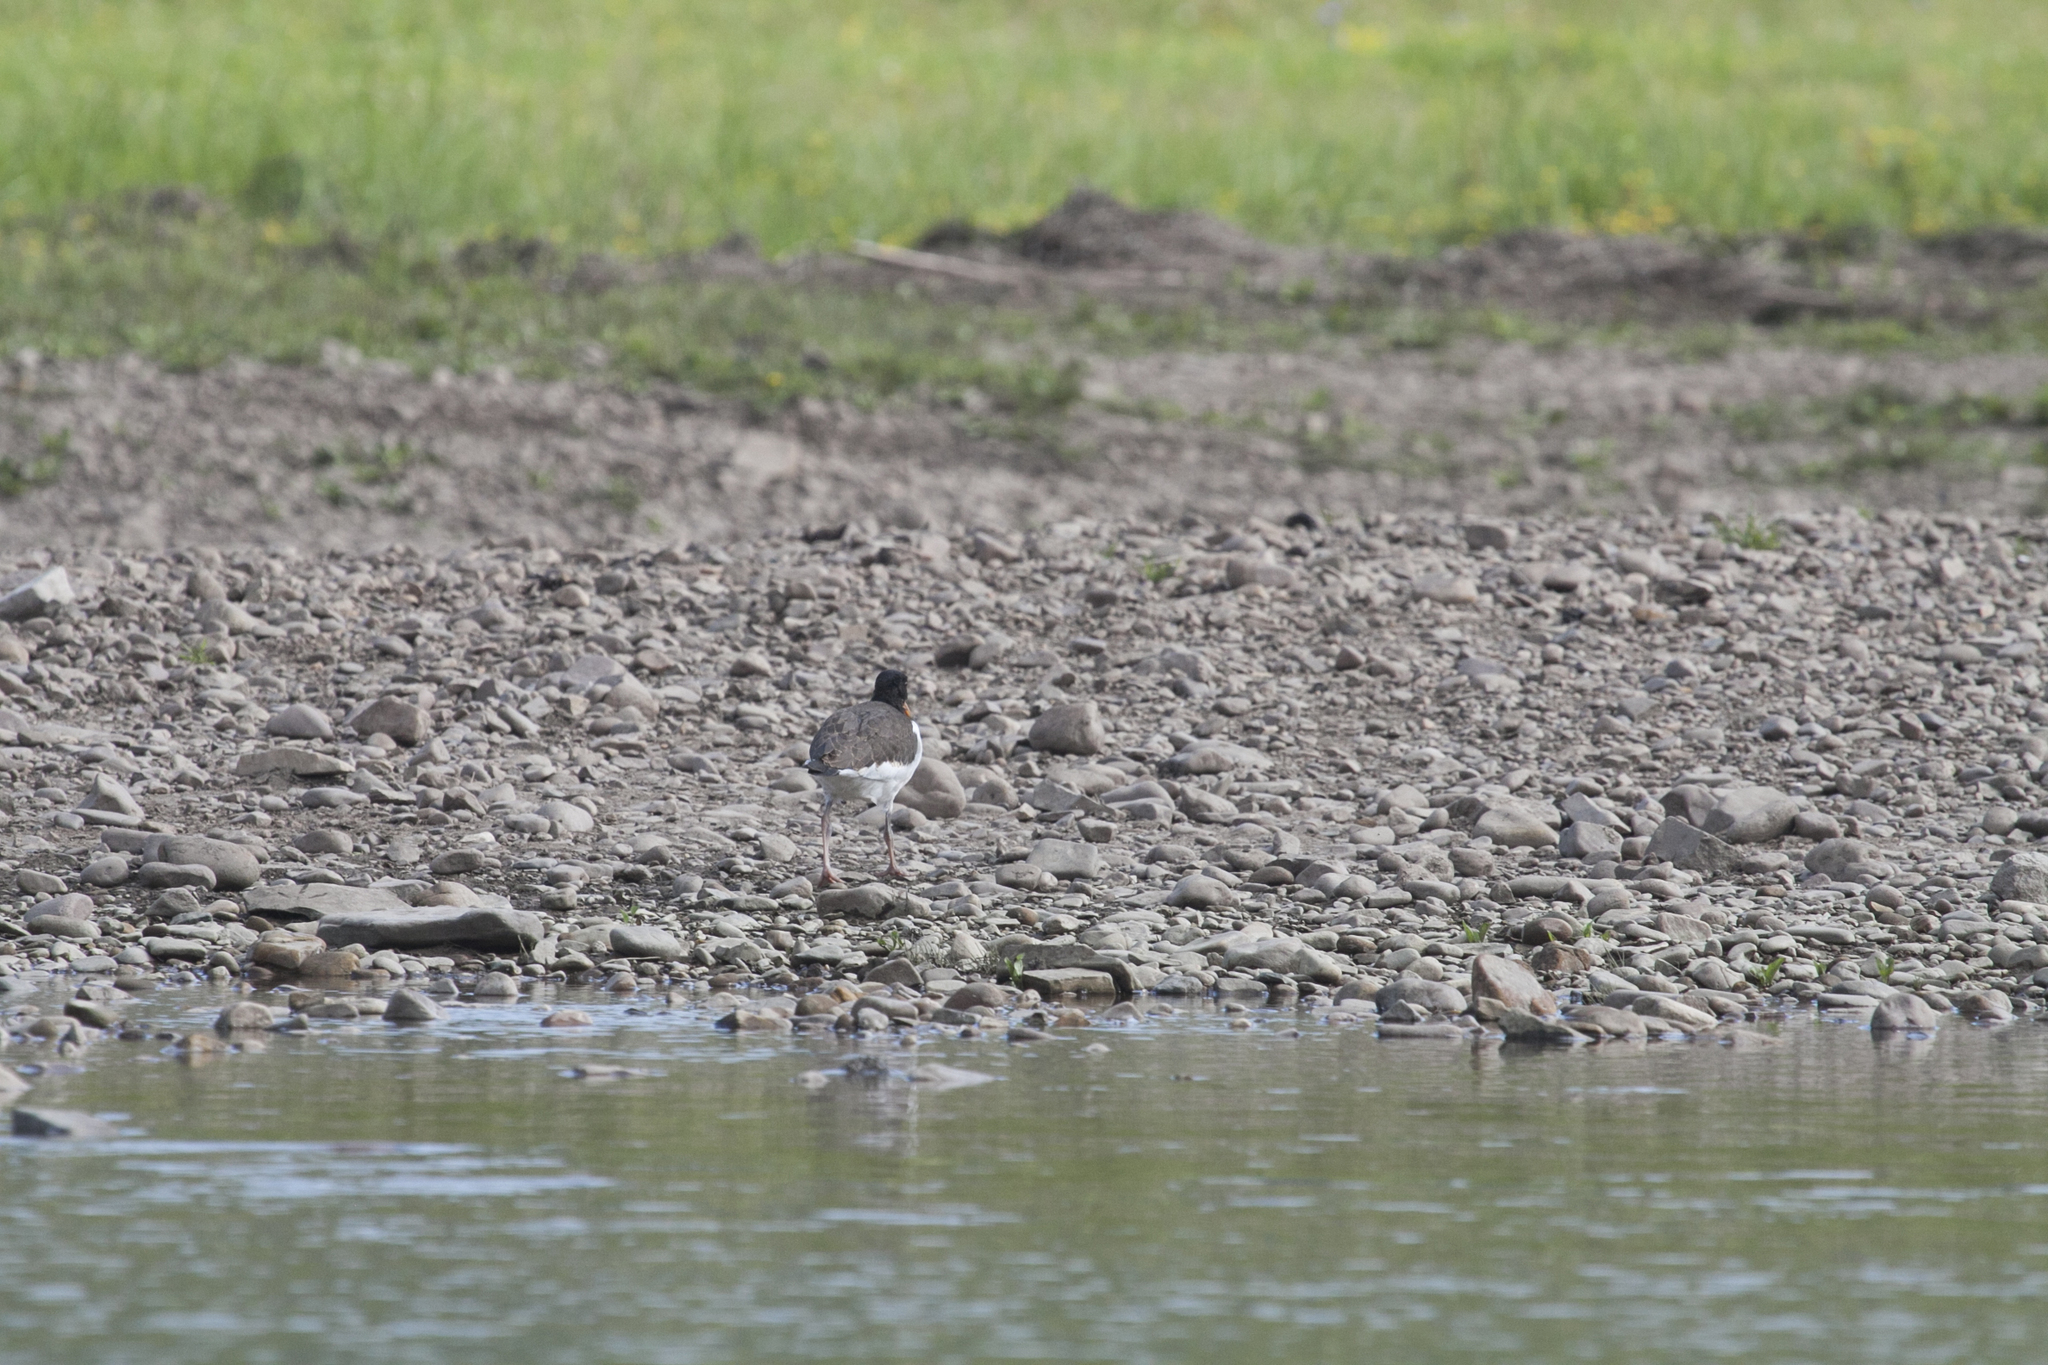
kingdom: Animalia
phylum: Chordata
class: Aves
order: Charadriiformes
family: Haematopodidae
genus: Haematopus
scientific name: Haematopus ostralegus
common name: Eurasian oystercatcher
